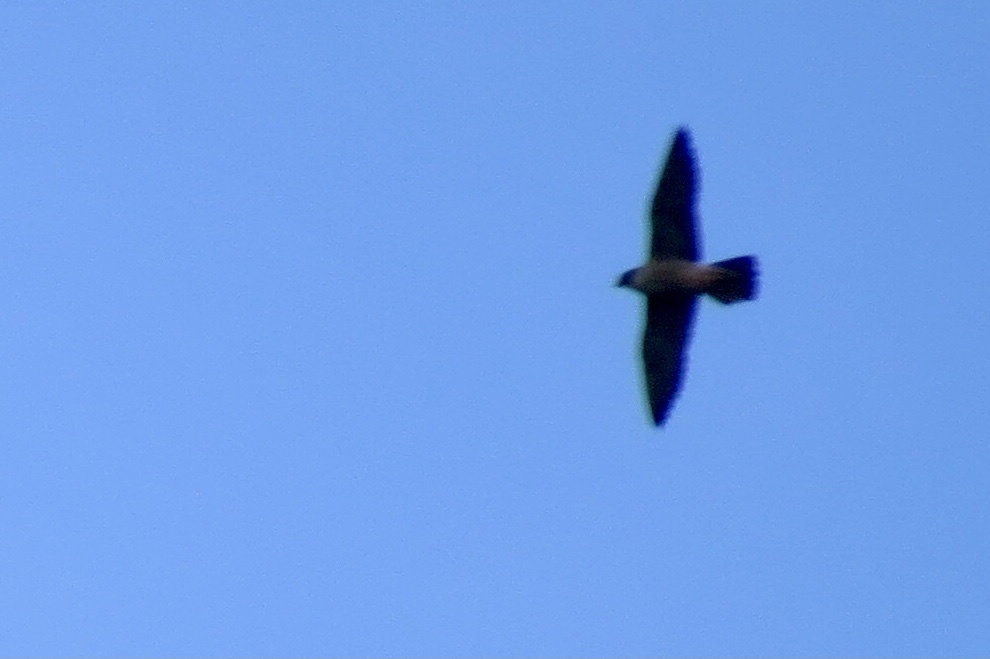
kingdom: Animalia
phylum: Chordata
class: Aves
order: Falconiformes
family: Falconidae
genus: Falco
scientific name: Falco peregrinus
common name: Peregrine falcon
